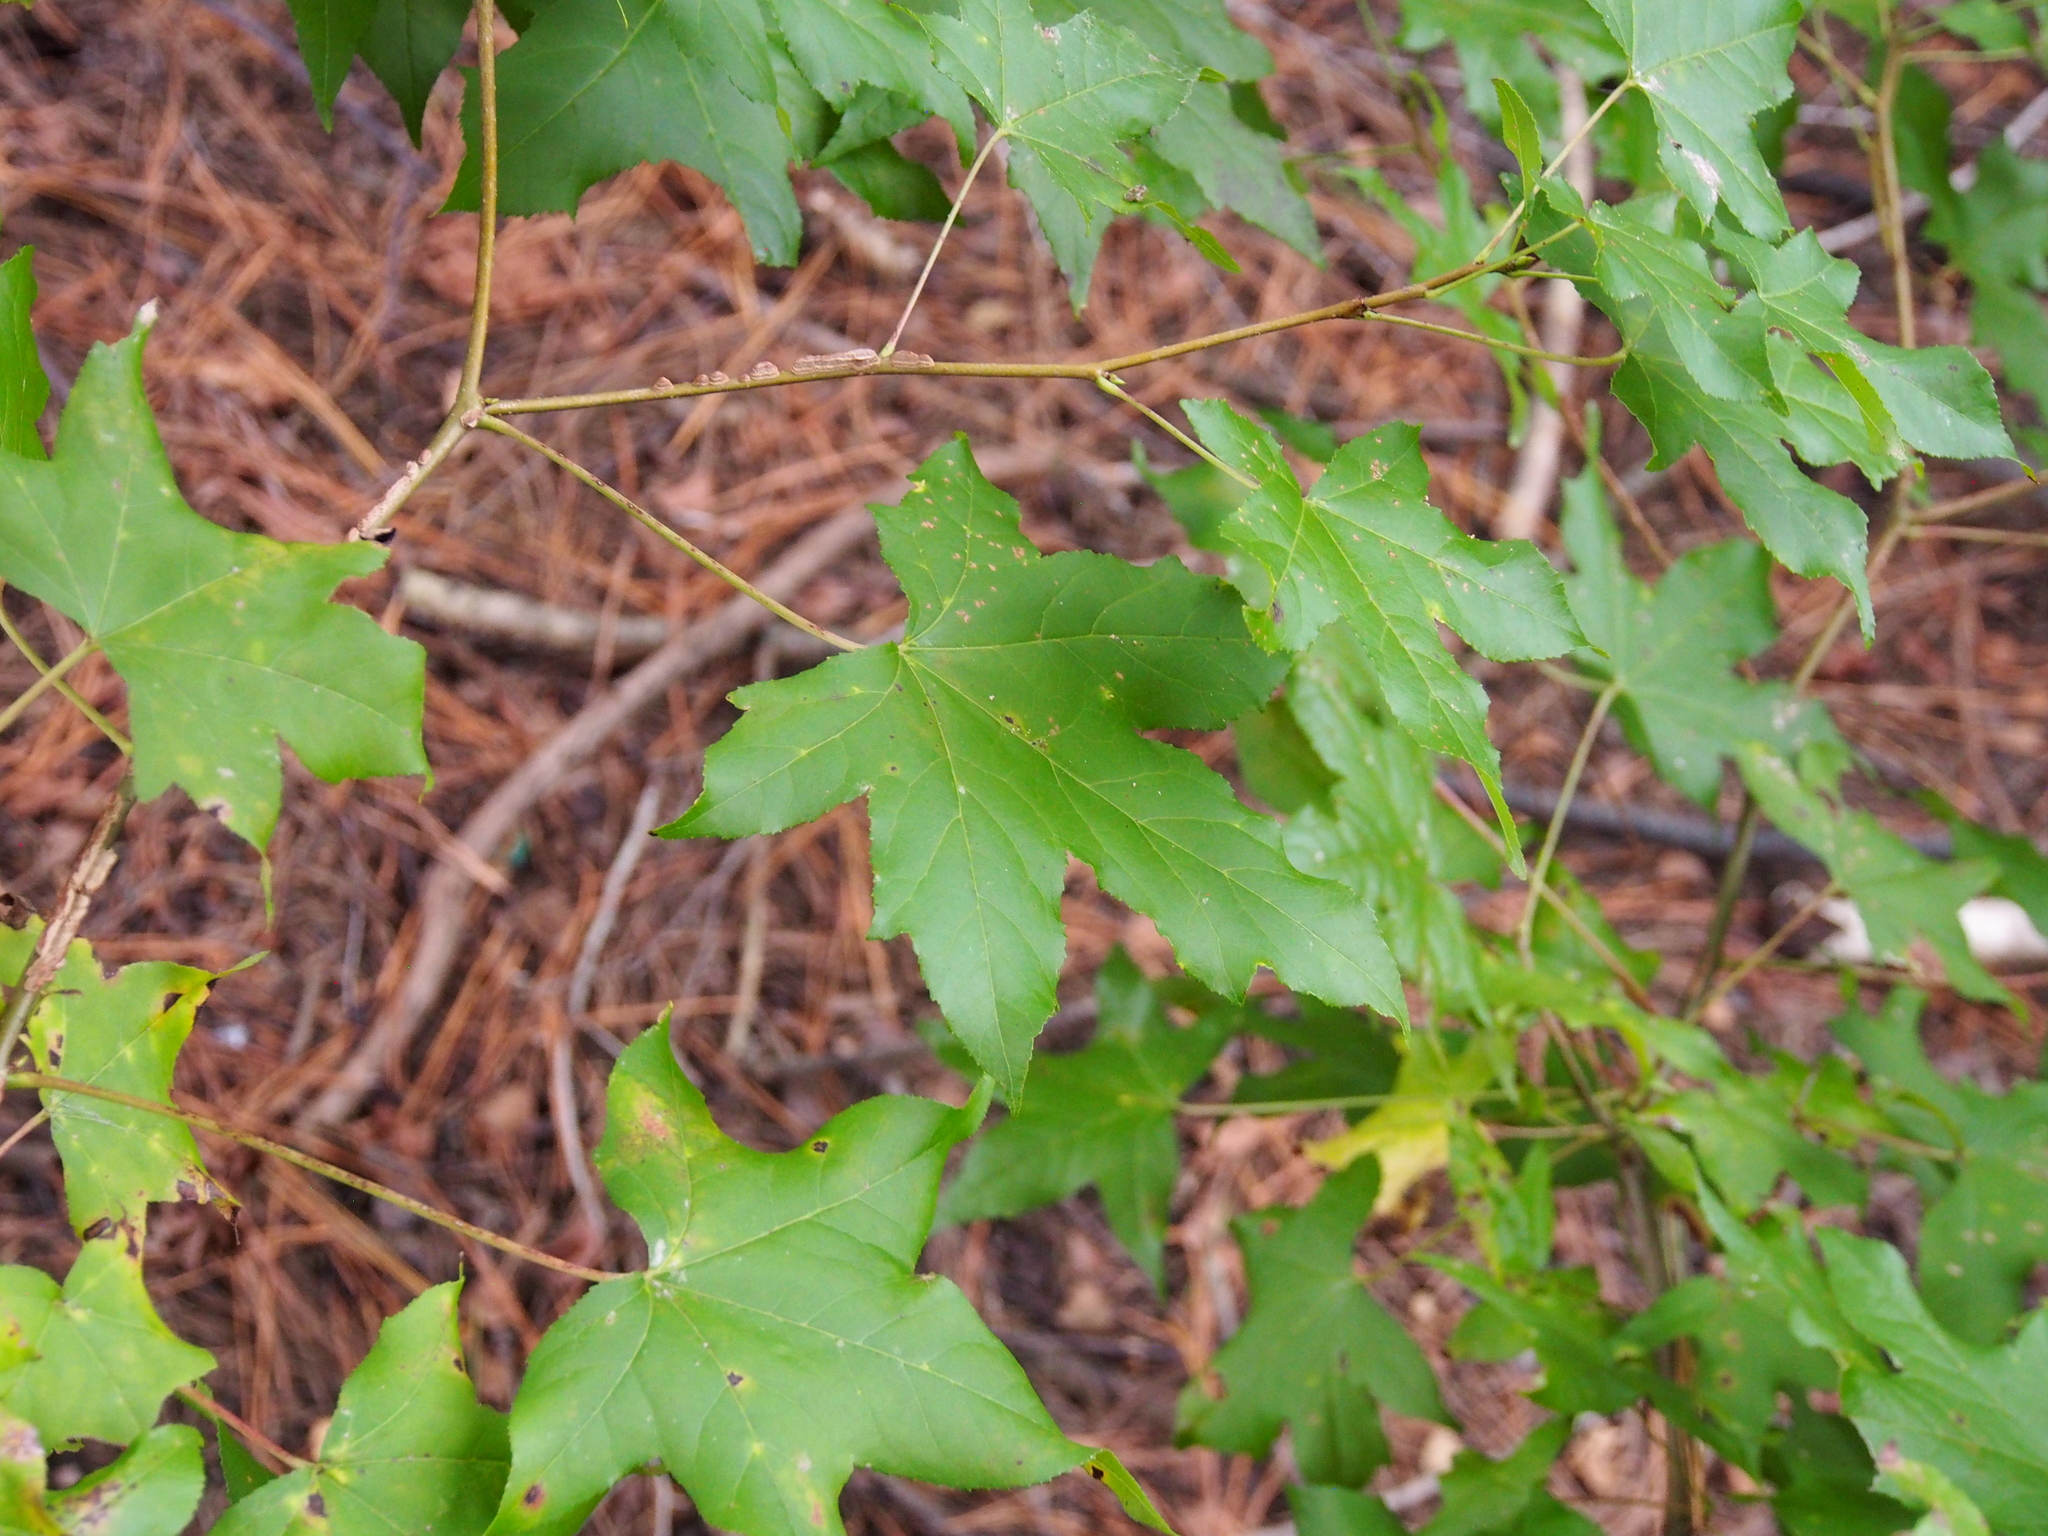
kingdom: Plantae
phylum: Tracheophyta
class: Magnoliopsida
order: Saxifragales
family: Altingiaceae
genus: Liquidambar
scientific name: Liquidambar styraciflua
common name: Sweet gum
